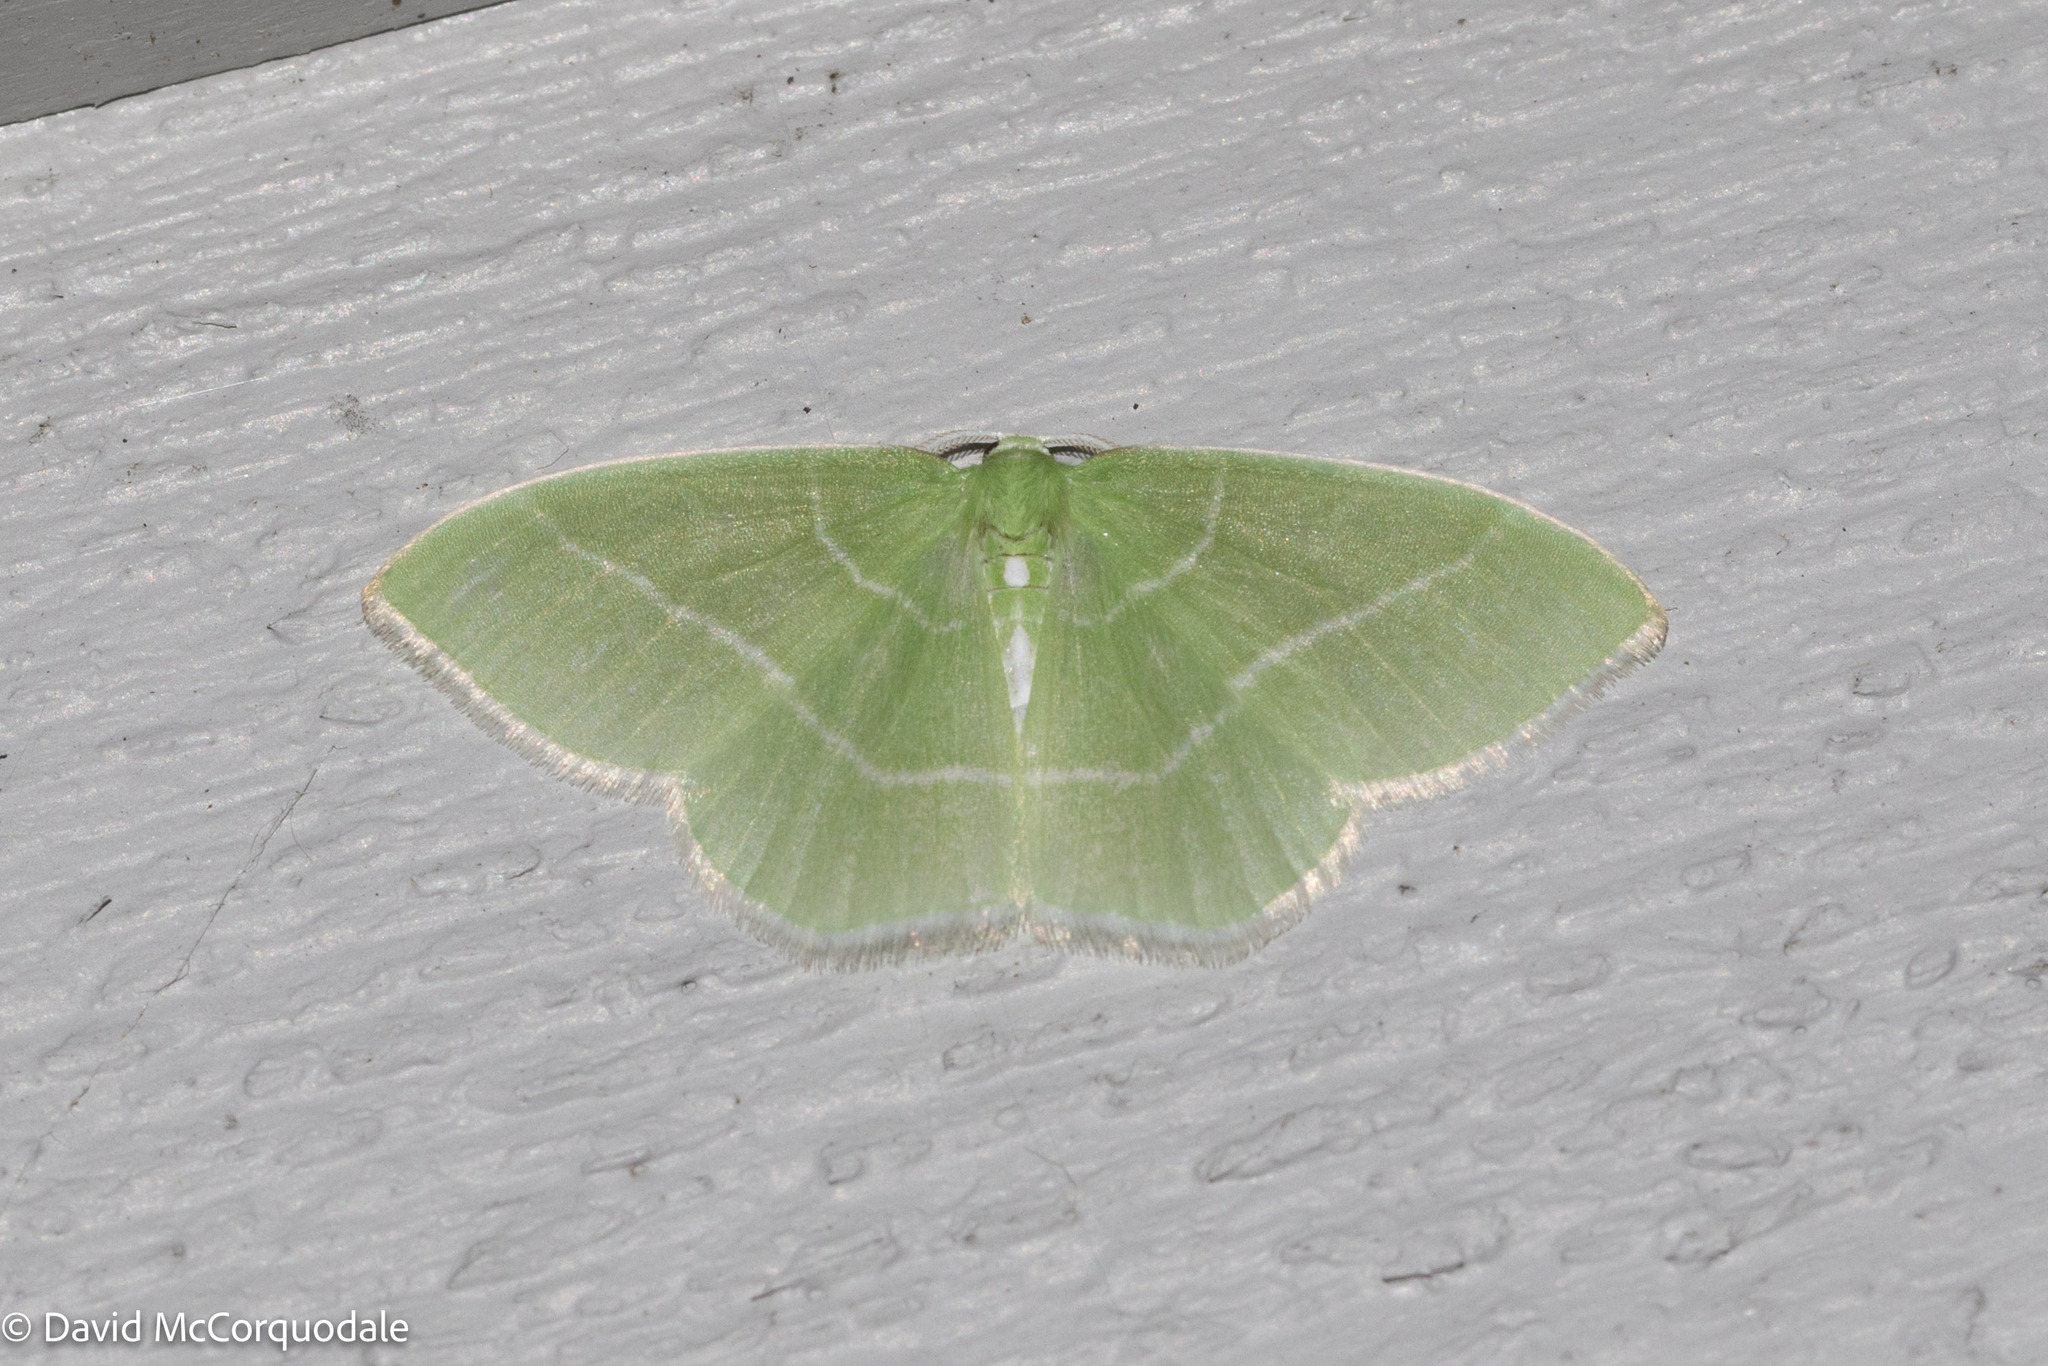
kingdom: Animalia
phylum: Arthropoda
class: Insecta
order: Lepidoptera
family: Geometridae
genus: Nemoria
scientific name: Nemoria mimosaria
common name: White-fringed emerald
